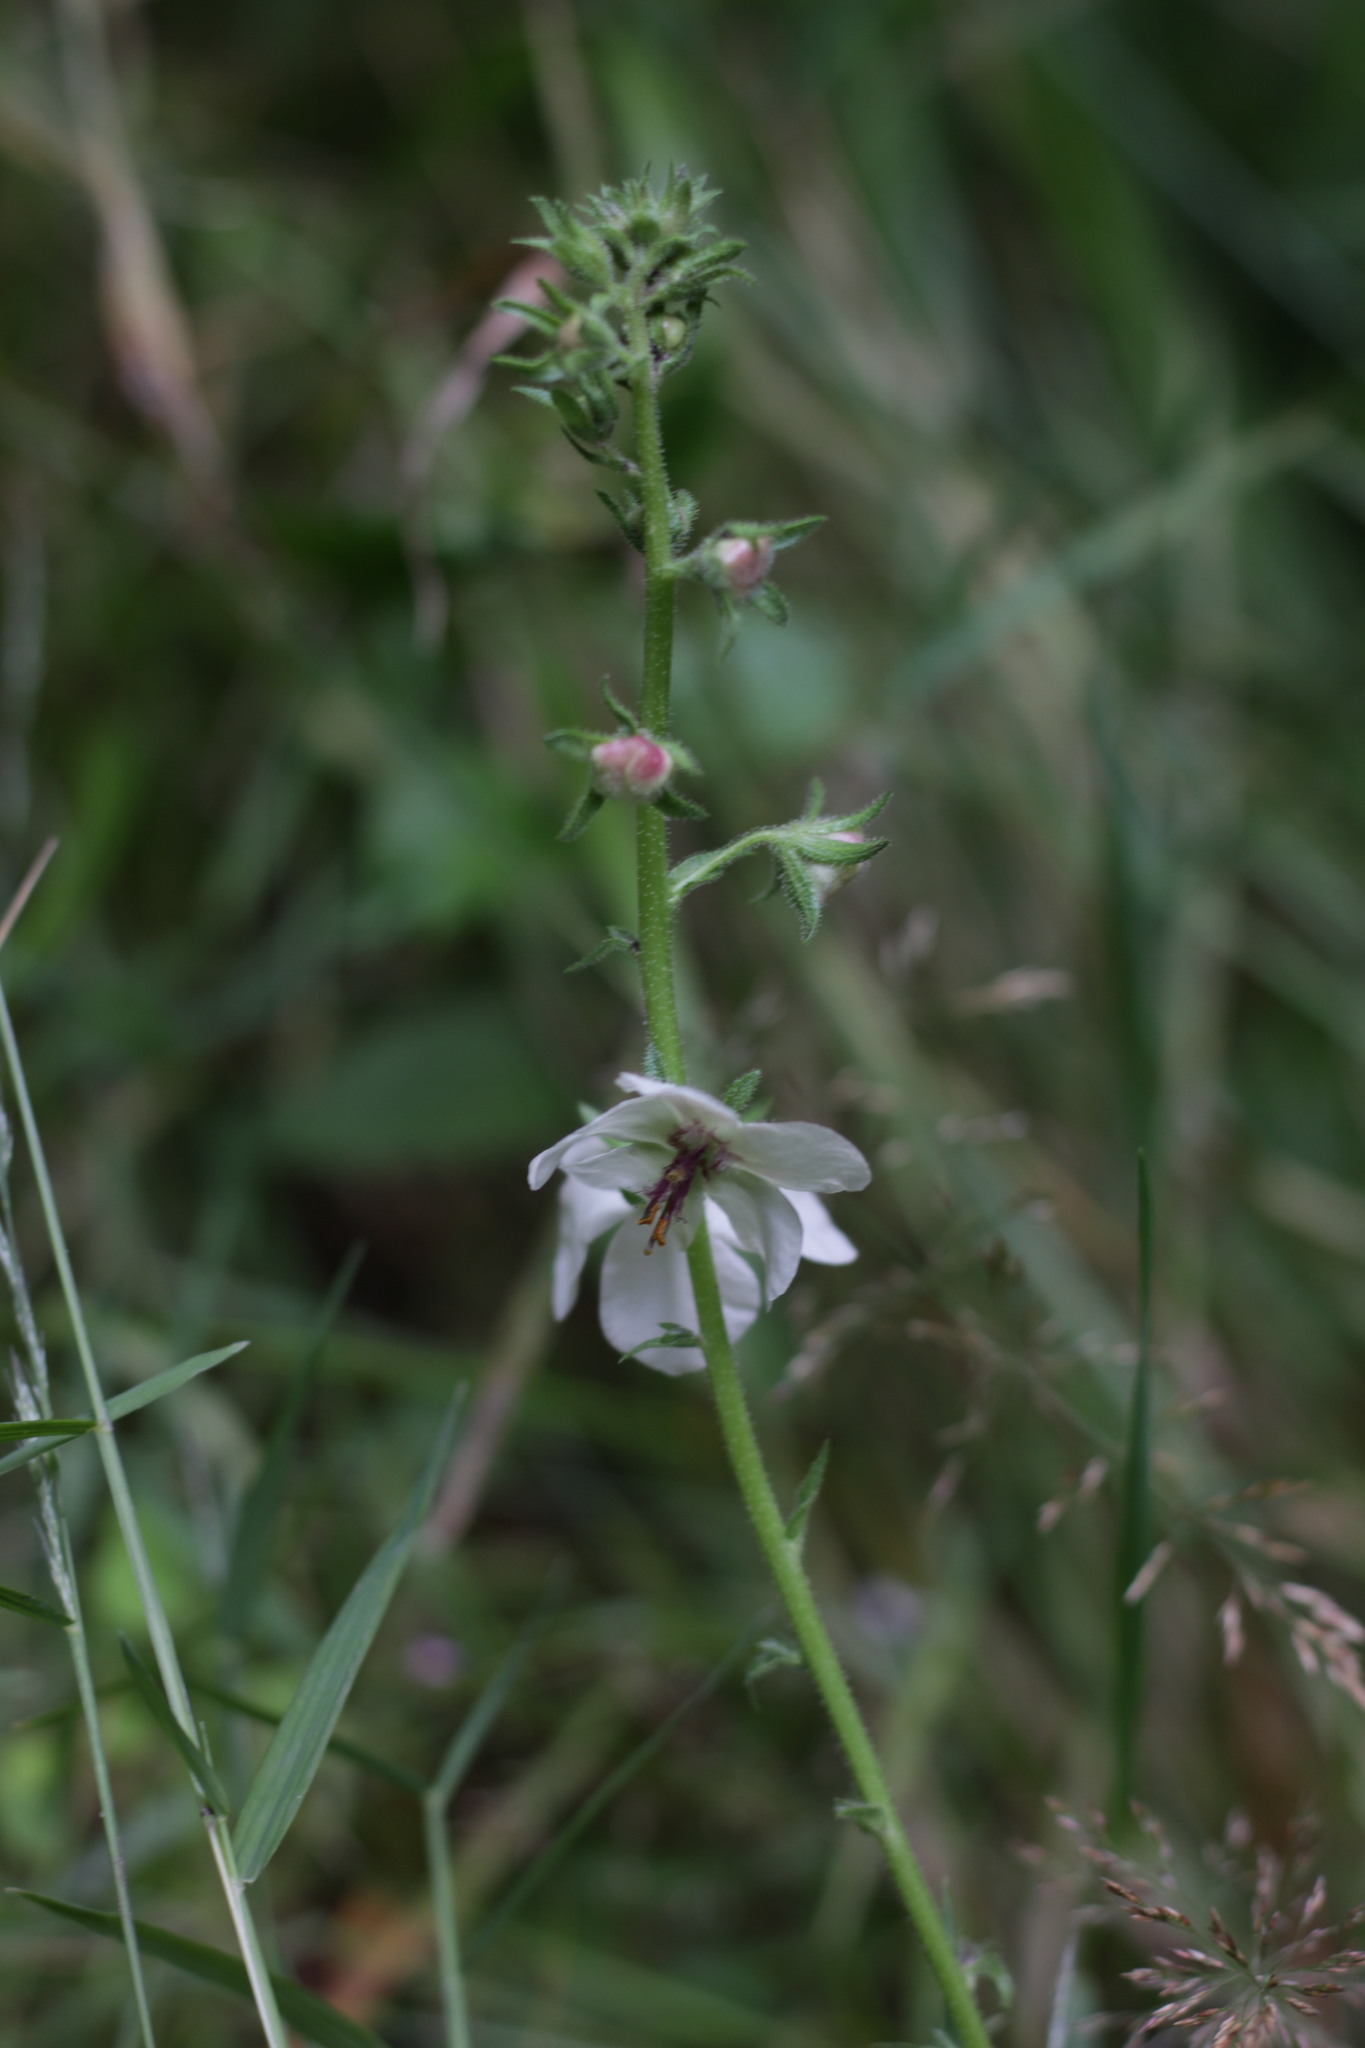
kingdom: Plantae
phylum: Tracheophyta
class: Magnoliopsida
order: Lamiales
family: Scrophulariaceae
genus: Verbascum
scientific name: Verbascum blattaria
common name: Moth mullein
